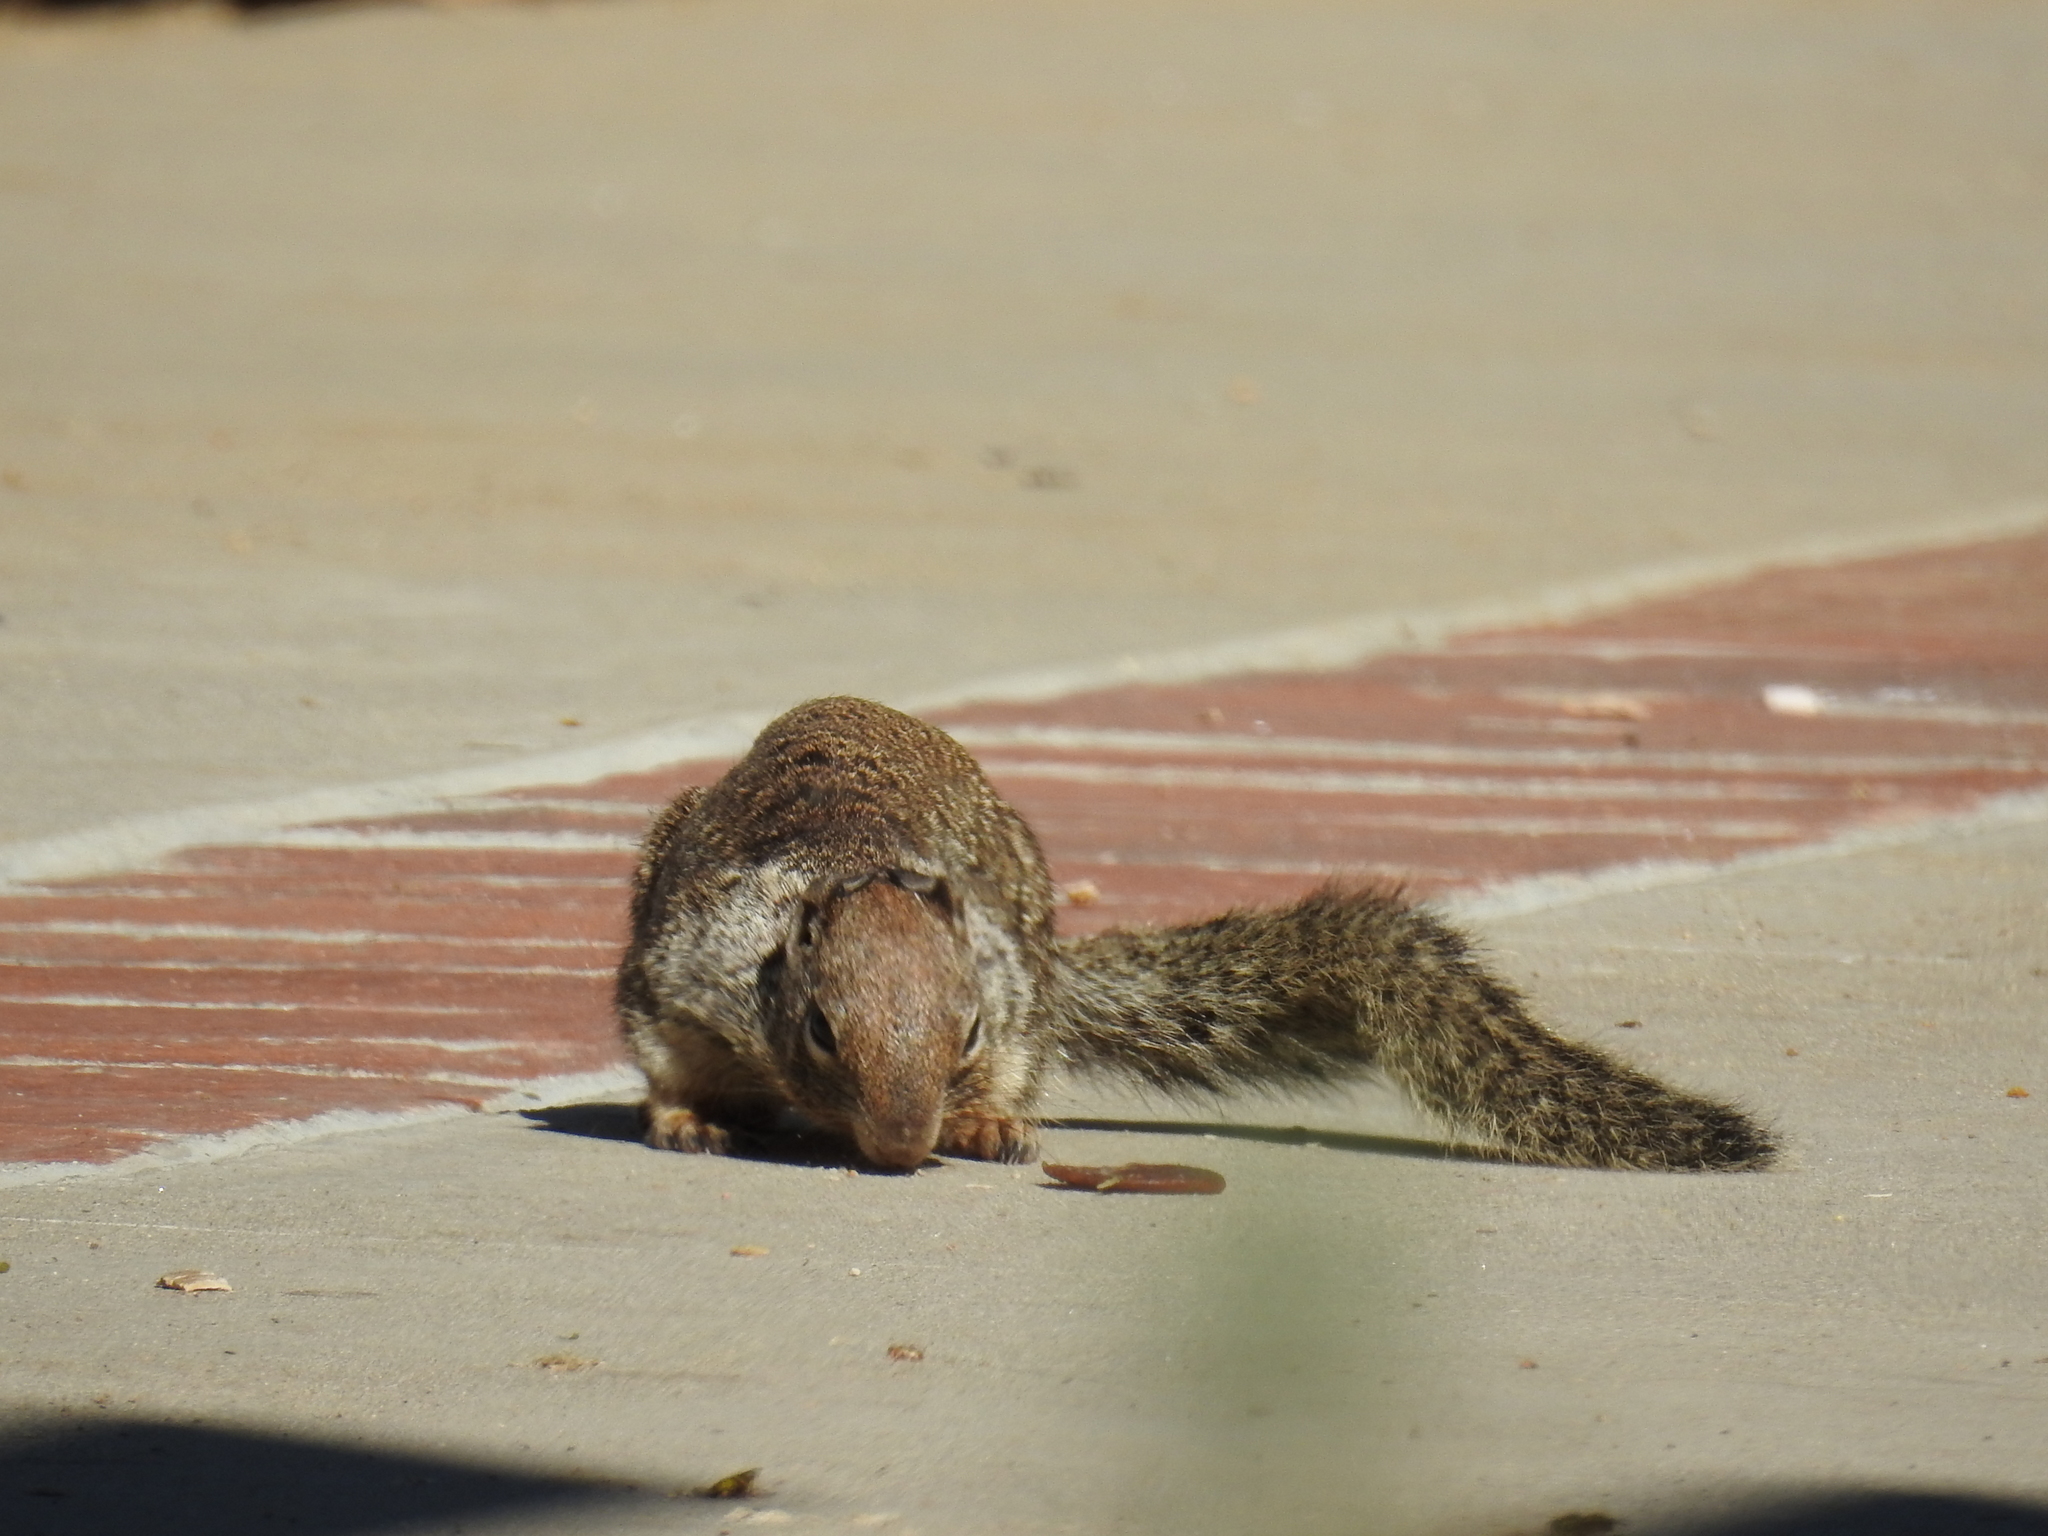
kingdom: Animalia
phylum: Chordata
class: Mammalia
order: Rodentia
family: Sciuridae
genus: Otospermophilus
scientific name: Otospermophilus beecheyi
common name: California ground squirrel
